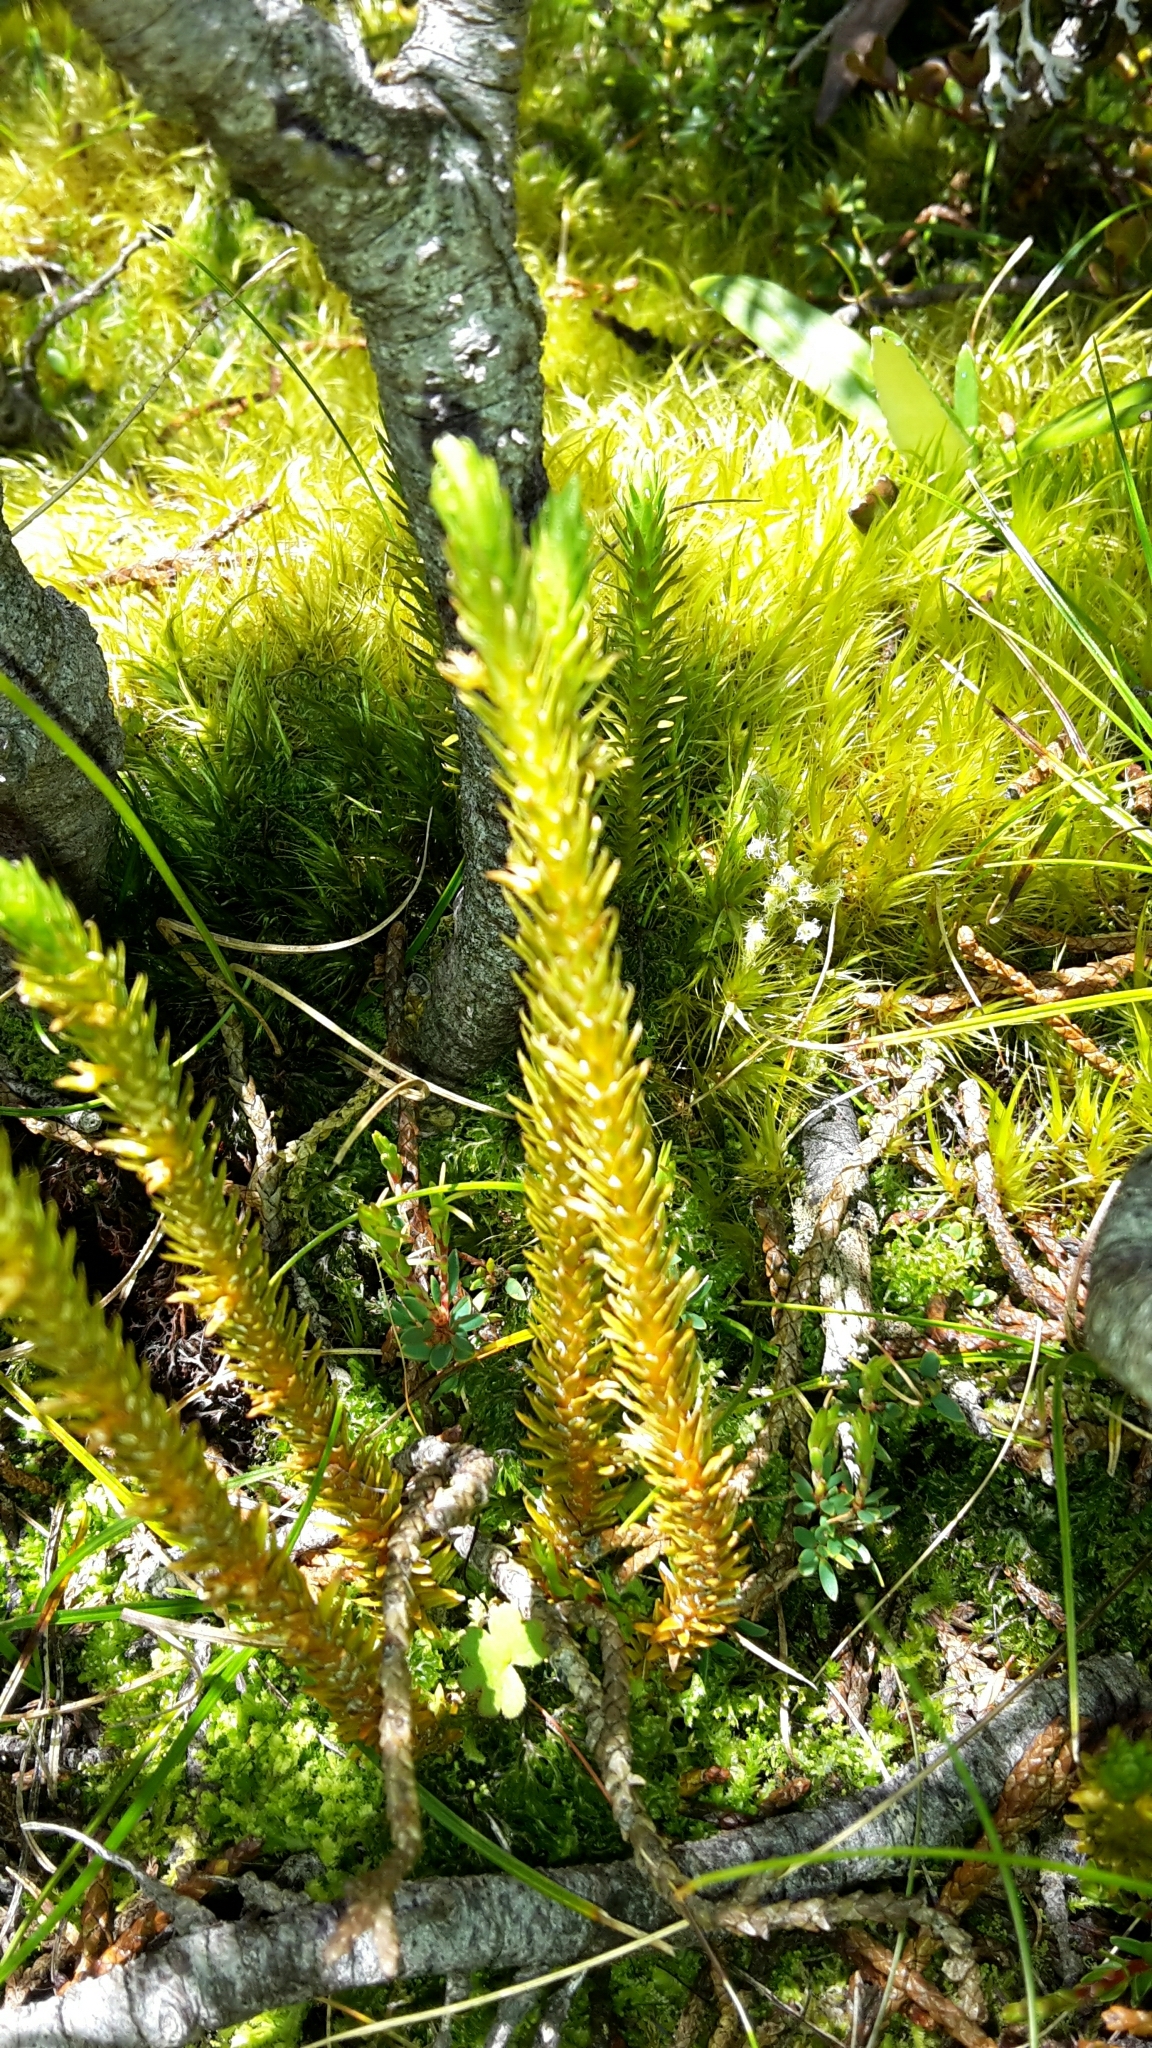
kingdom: Plantae
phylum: Tracheophyta
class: Lycopodiopsida
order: Lycopodiales
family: Lycopodiaceae
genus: Huperzia
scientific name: Huperzia australiana
